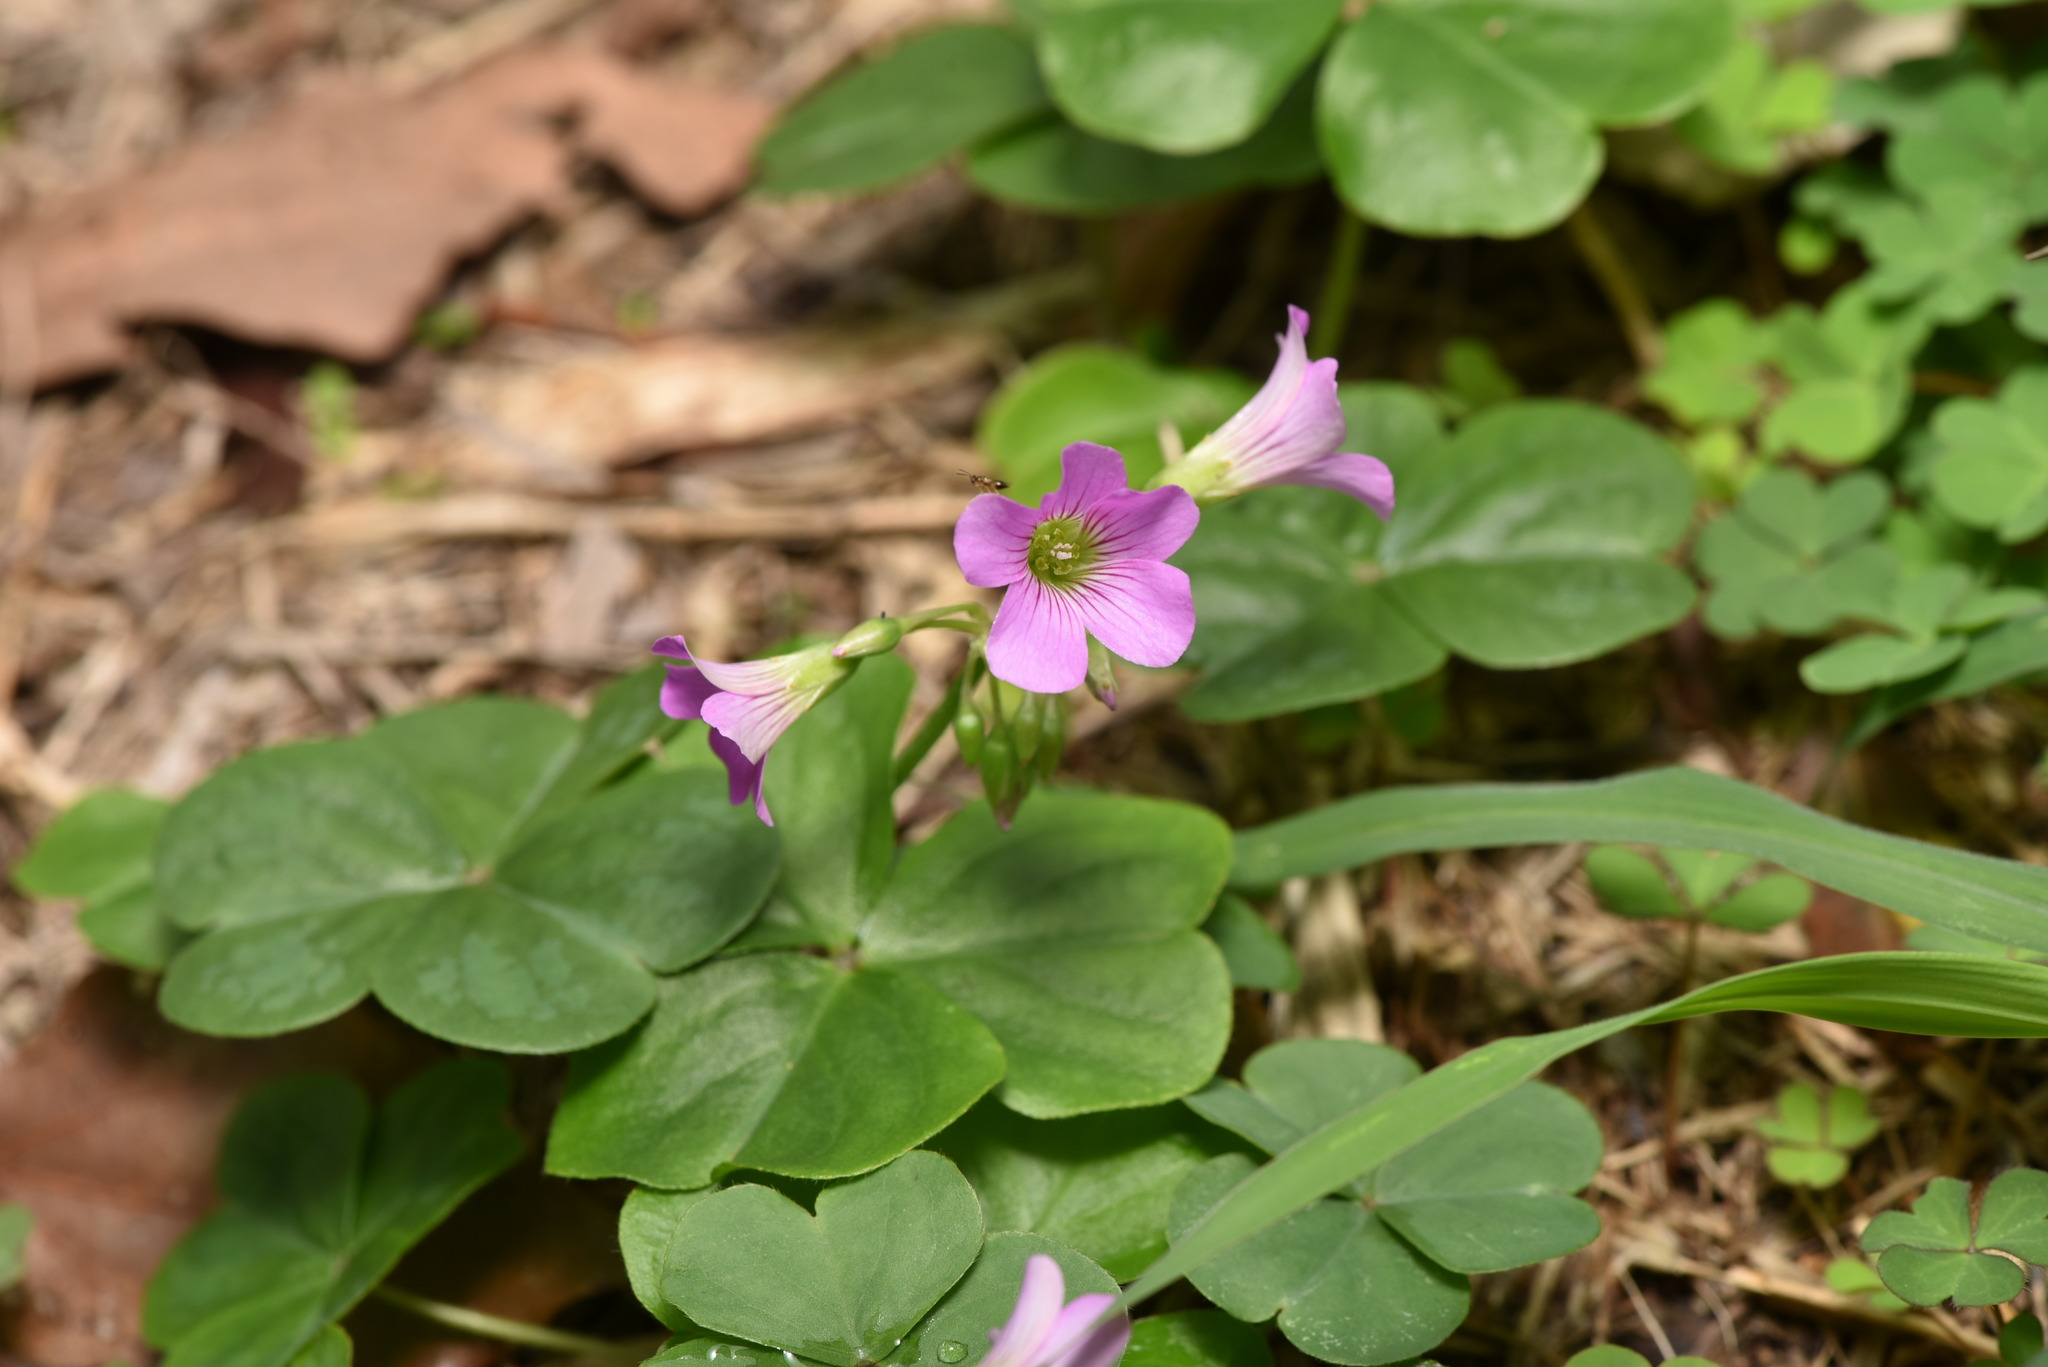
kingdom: Plantae
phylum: Tracheophyta
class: Magnoliopsida
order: Oxalidales
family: Oxalidaceae
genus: Oxalis
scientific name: Oxalis debilis
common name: Large-flowered pink-sorrel
